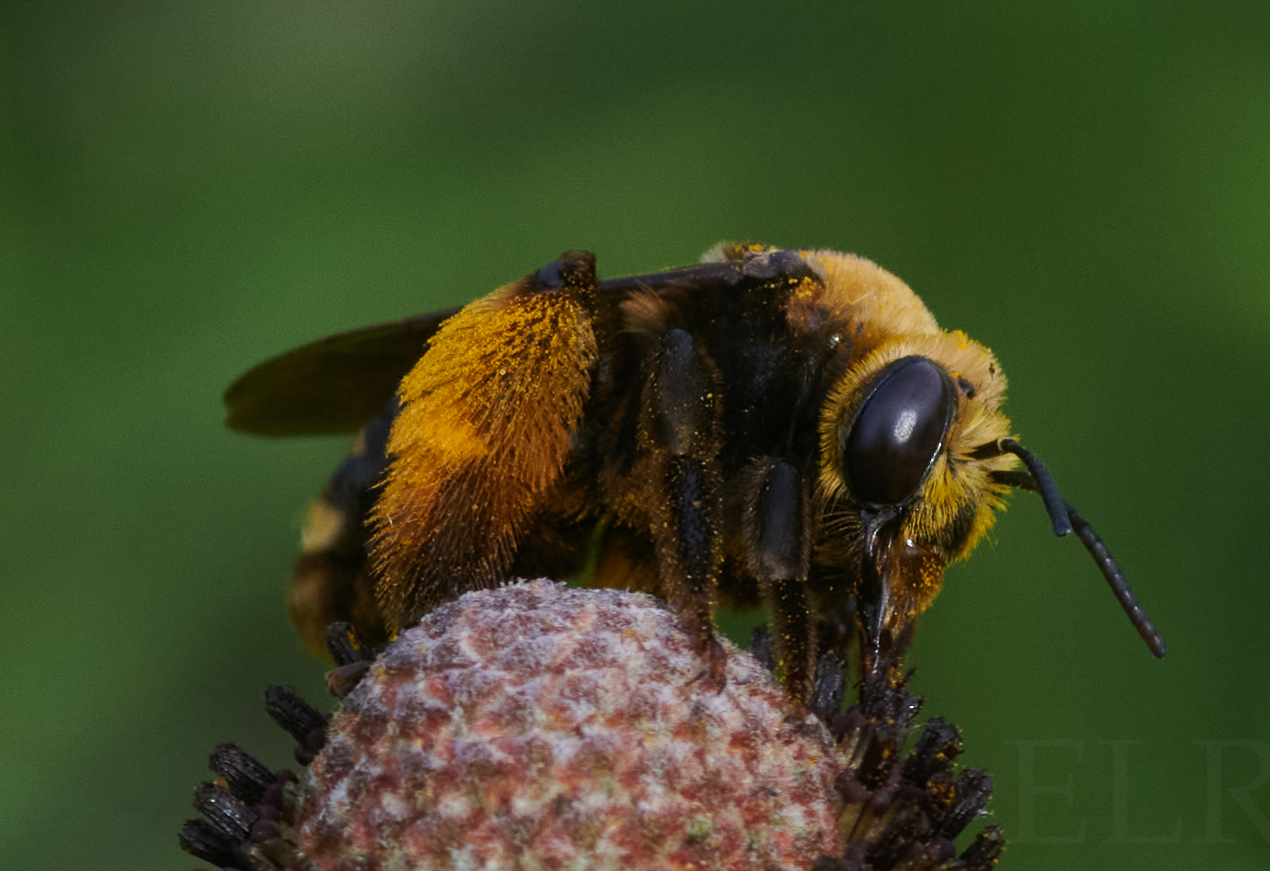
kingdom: Animalia
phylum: Arthropoda
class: Insecta
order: Hymenoptera
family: Apidae
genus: Svastra
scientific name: Svastra obliqua
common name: Oblique longhorn
